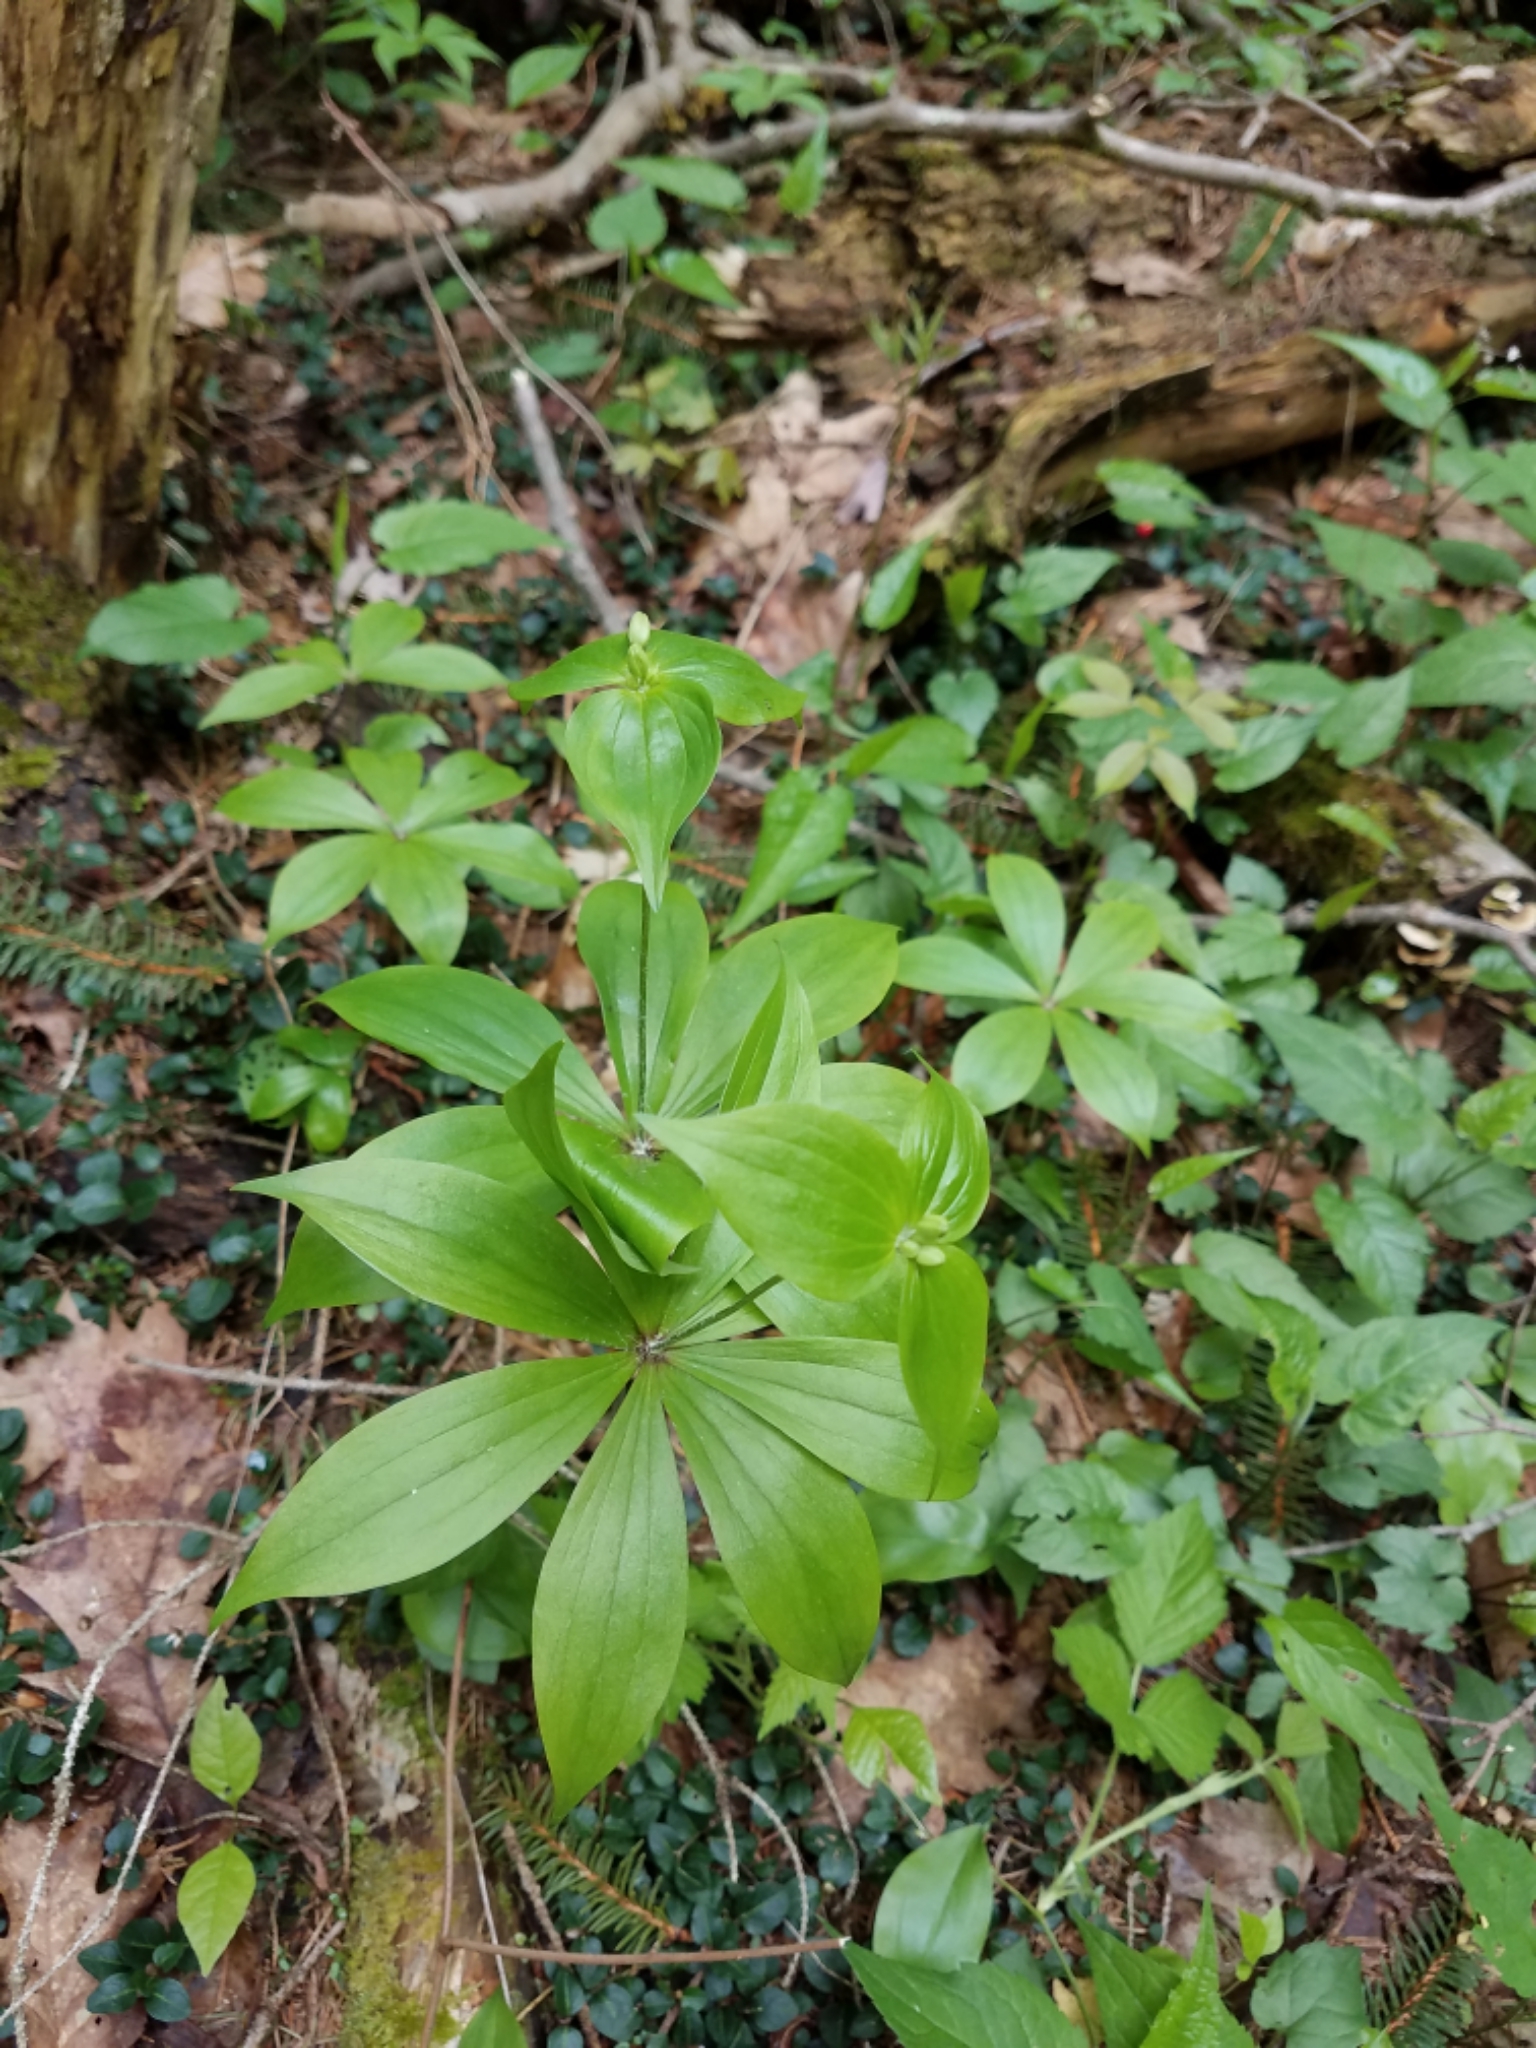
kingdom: Plantae
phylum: Tracheophyta
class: Liliopsida
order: Liliales
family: Liliaceae
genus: Medeola
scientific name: Medeola virginiana
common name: Indian cucumber-root
